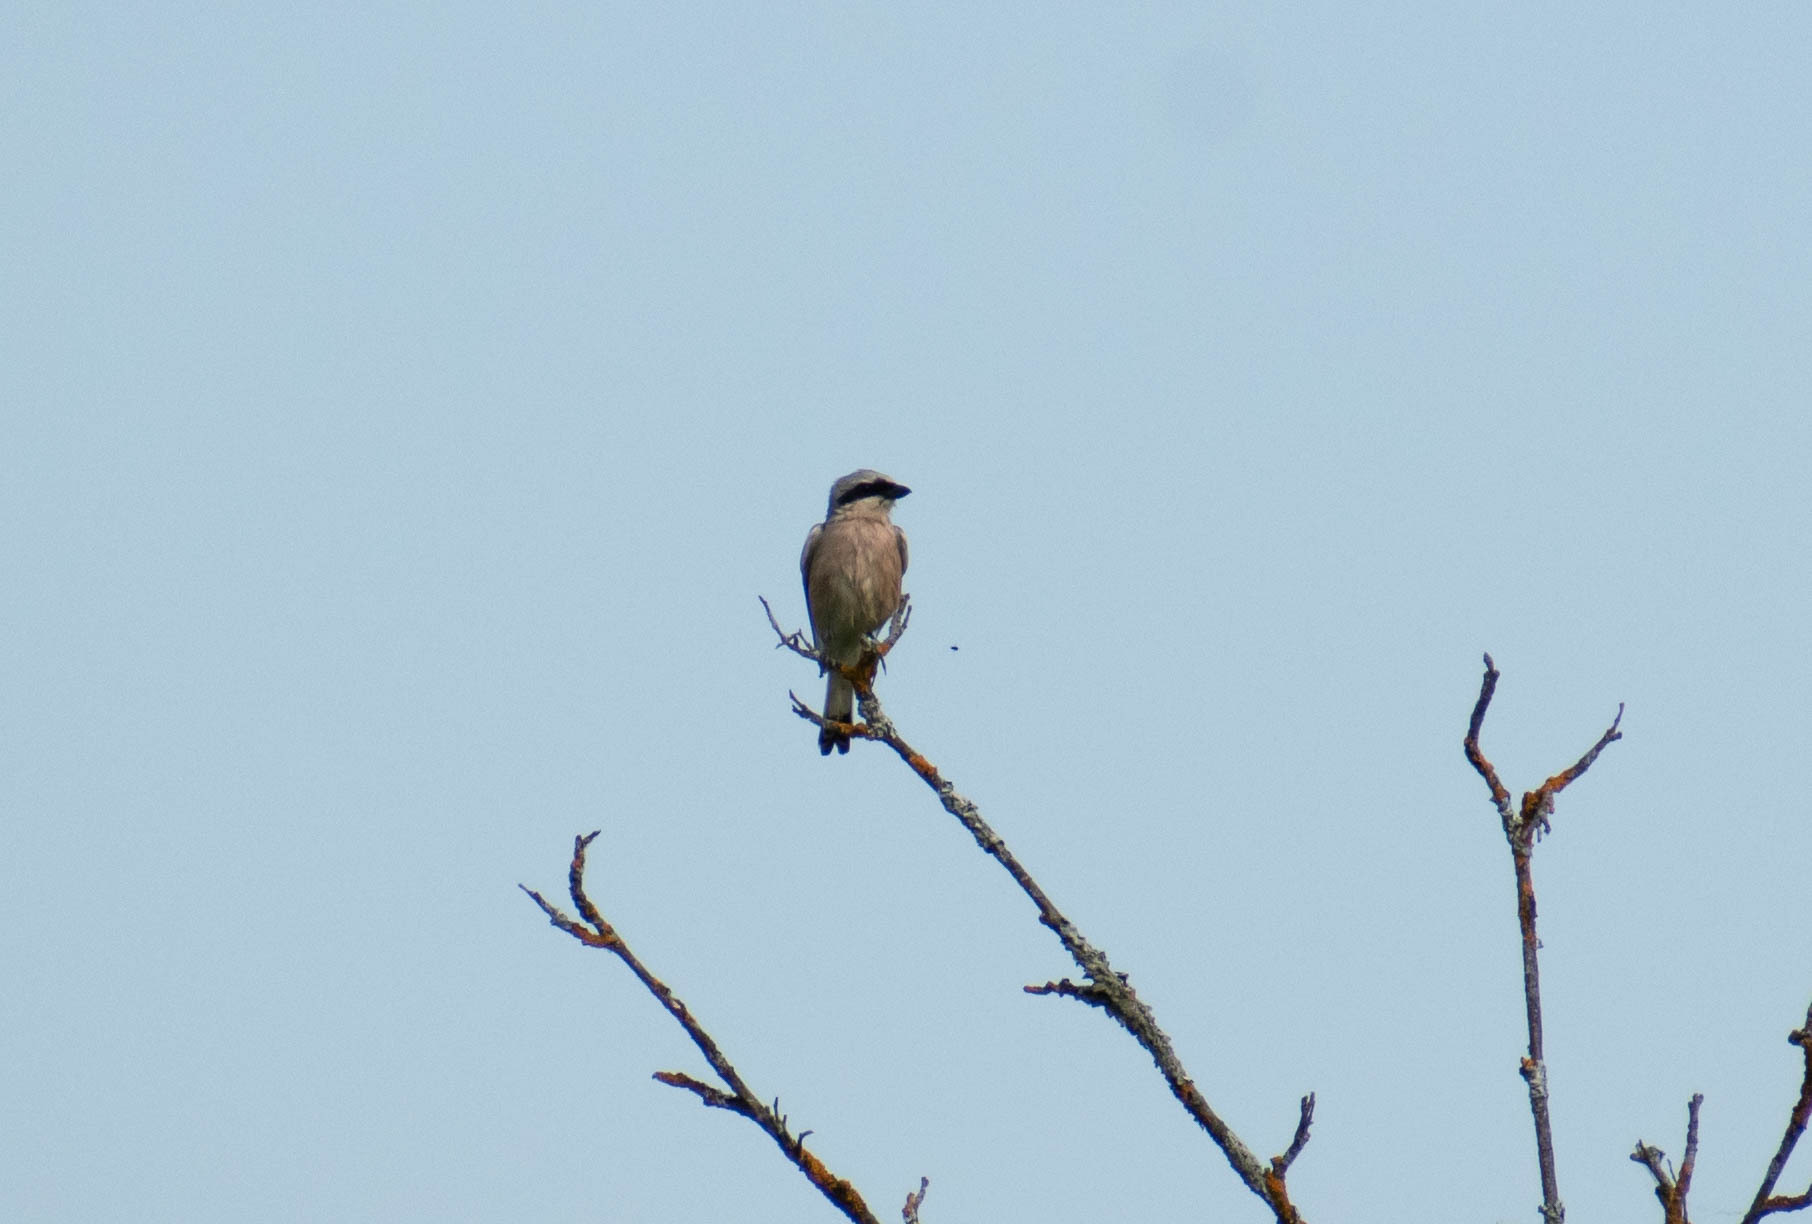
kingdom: Animalia
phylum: Chordata
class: Aves
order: Passeriformes
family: Laniidae
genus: Lanius
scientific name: Lanius collurio
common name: Red-backed shrike
